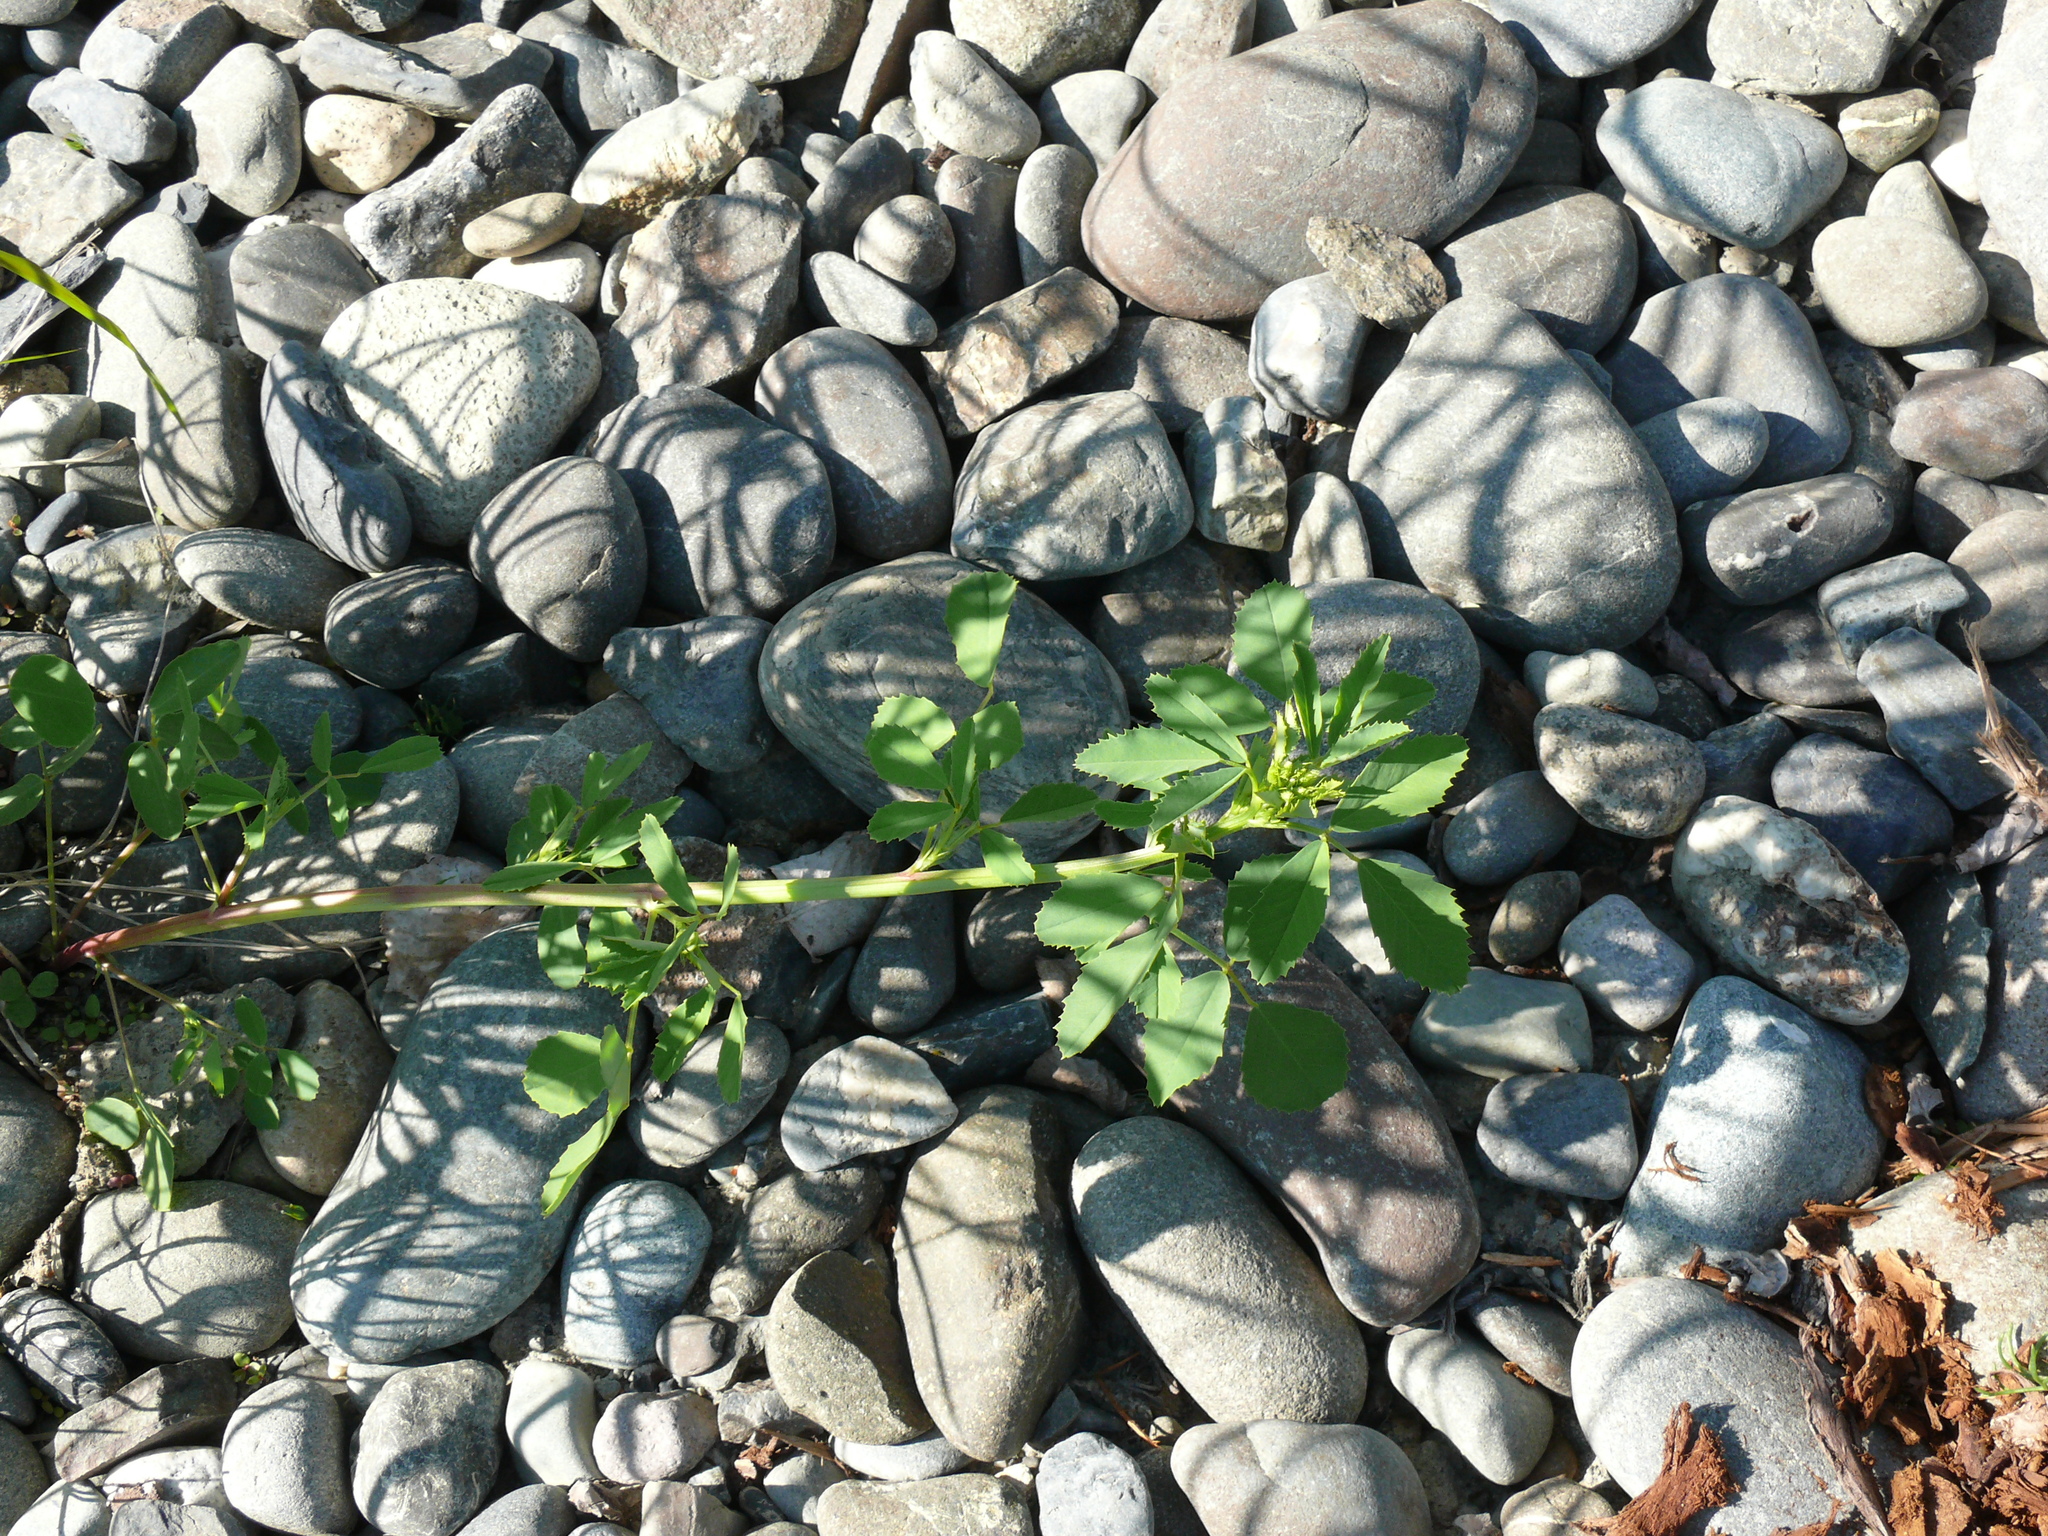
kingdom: Plantae
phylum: Tracheophyta
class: Magnoliopsida
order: Fabales
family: Fabaceae
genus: Melilotus
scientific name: Melilotus albus
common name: White melilot
